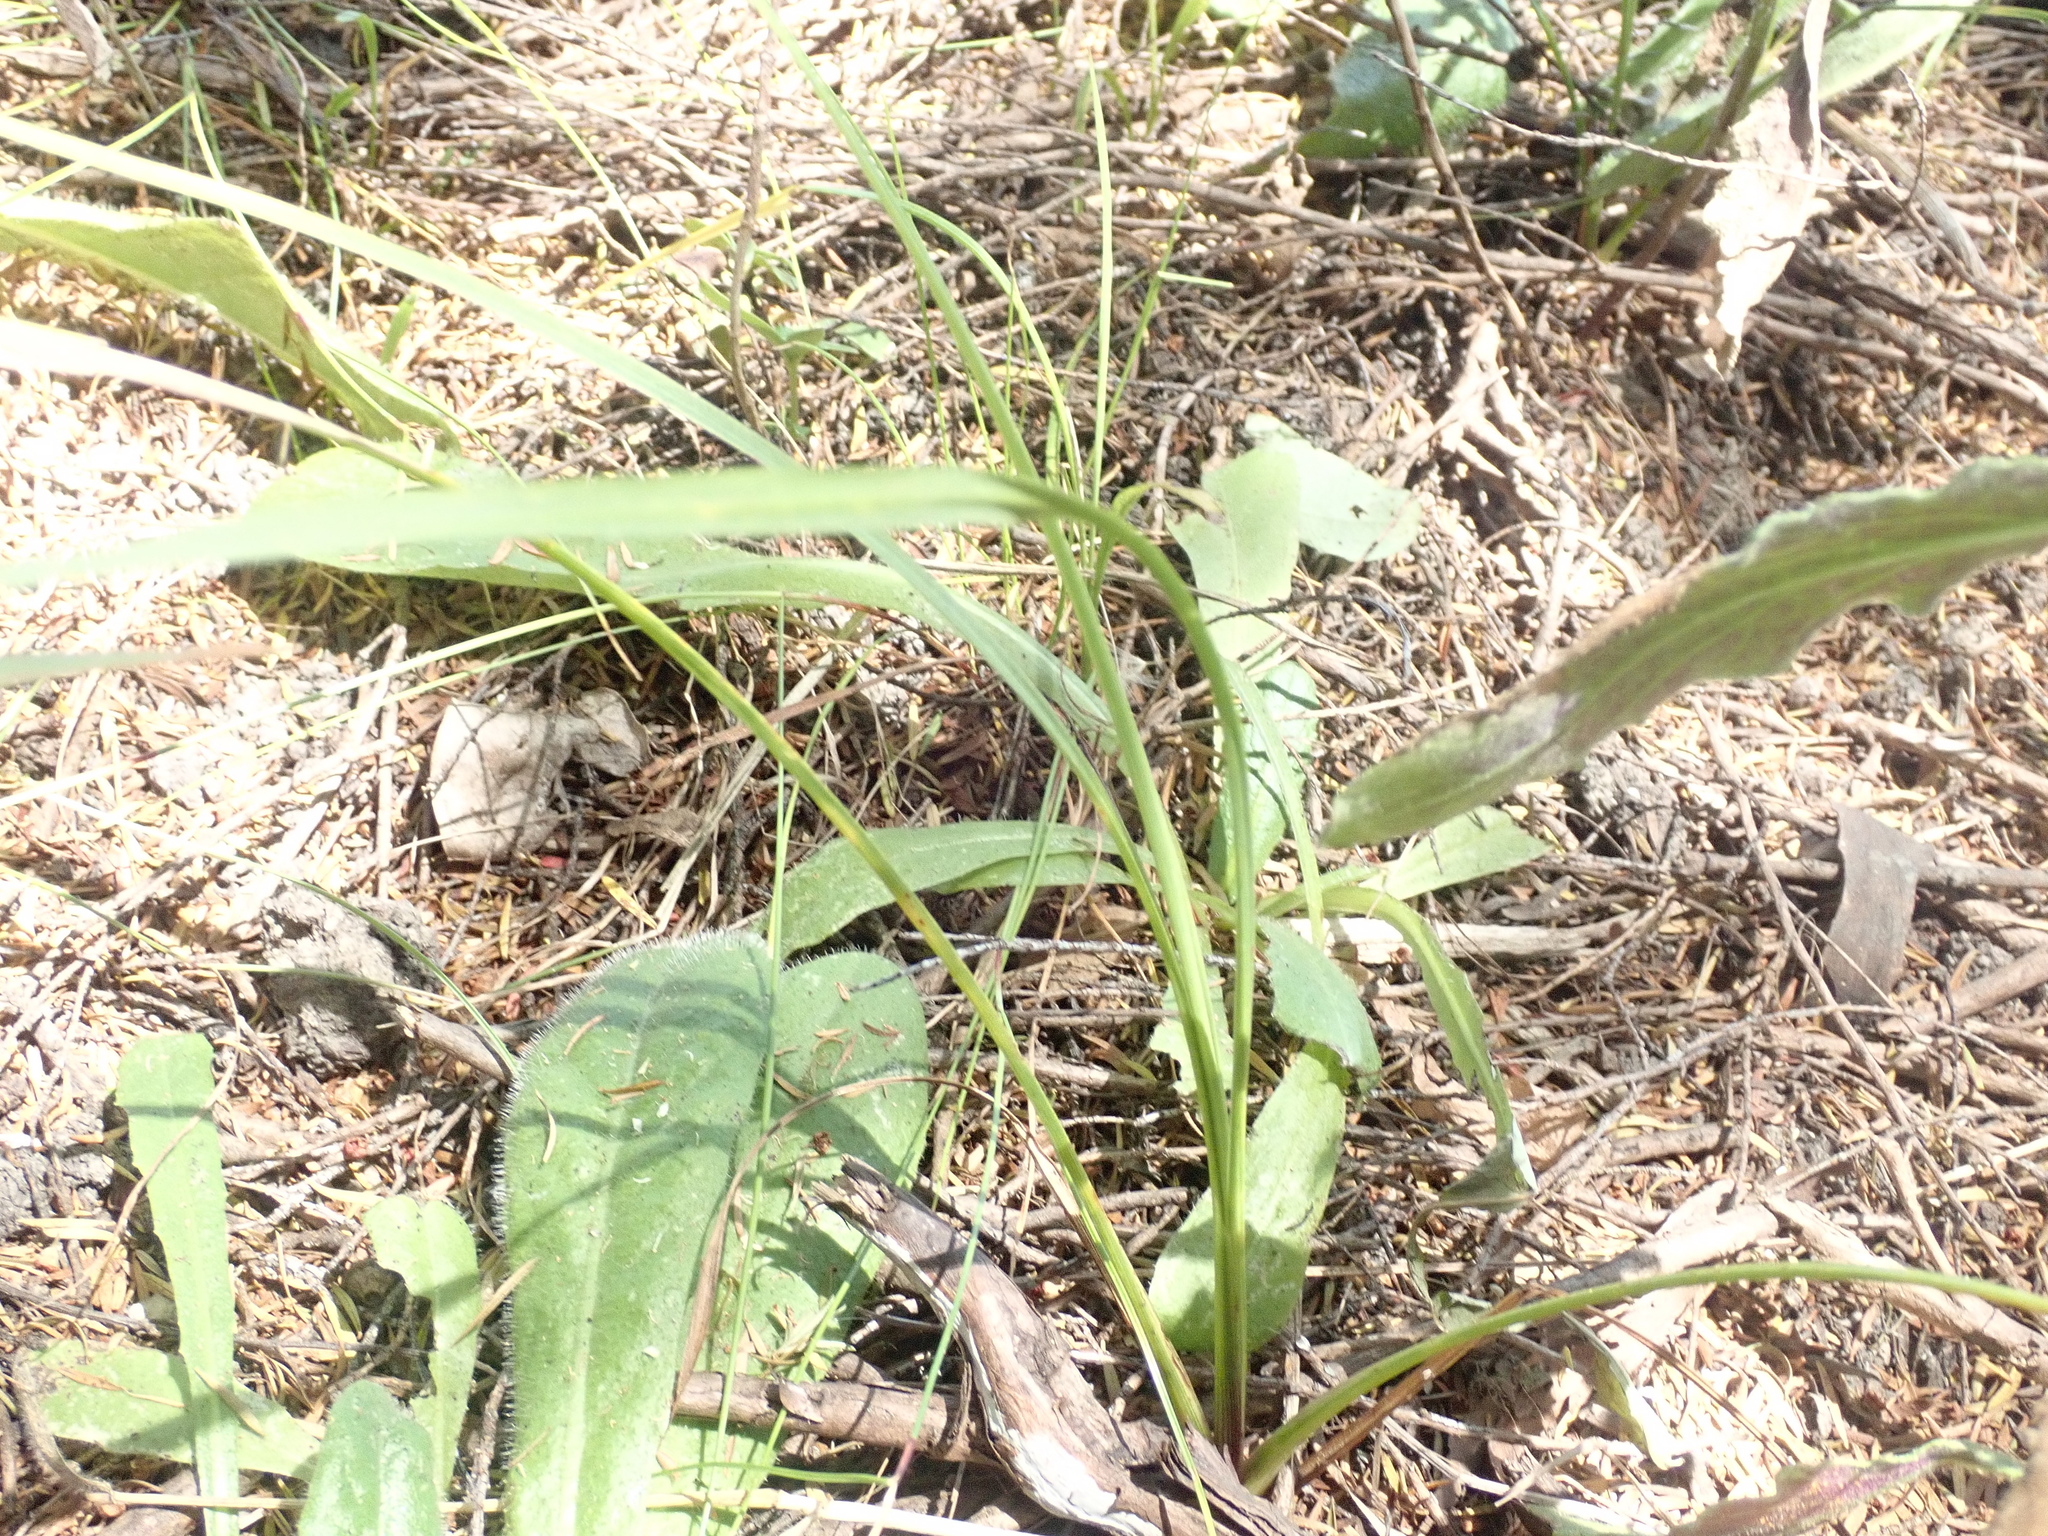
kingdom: Plantae
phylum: Tracheophyta
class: Liliopsida
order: Asparagales
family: Asparagaceae
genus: Cordyline
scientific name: Cordyline australis
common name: Cabbage-palm
